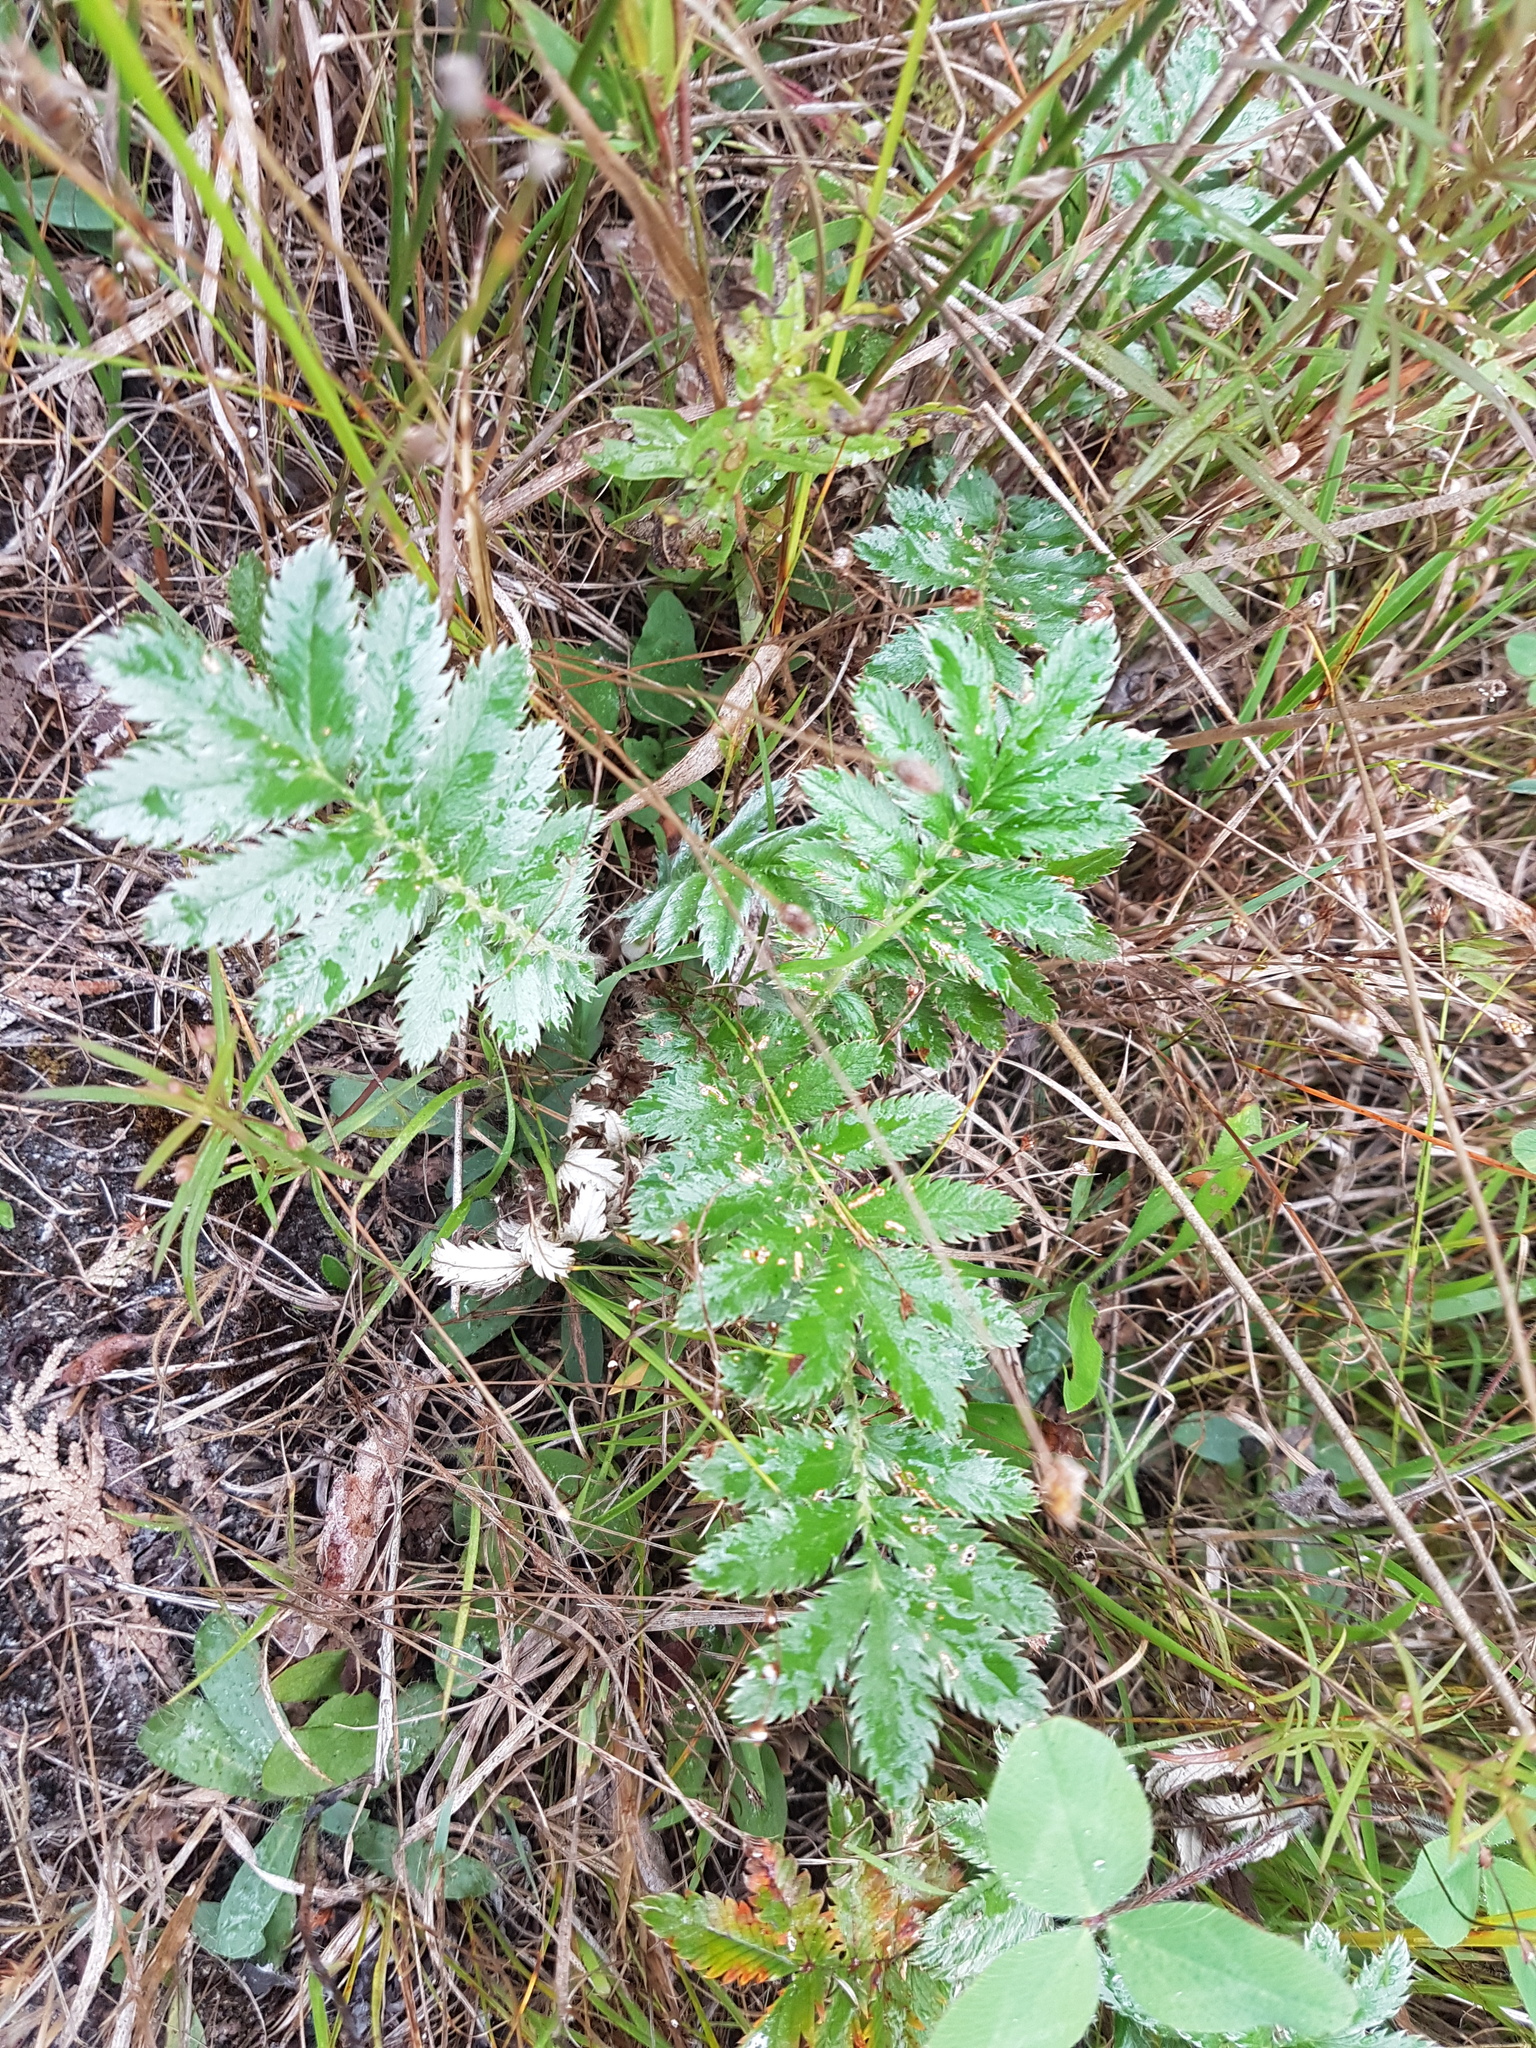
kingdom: Plantae
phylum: Tracheophyta
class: Magnoliopsida
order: Rosales
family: Rosaceae
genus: Argentina
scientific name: Argentina anserina
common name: Common silverweed
